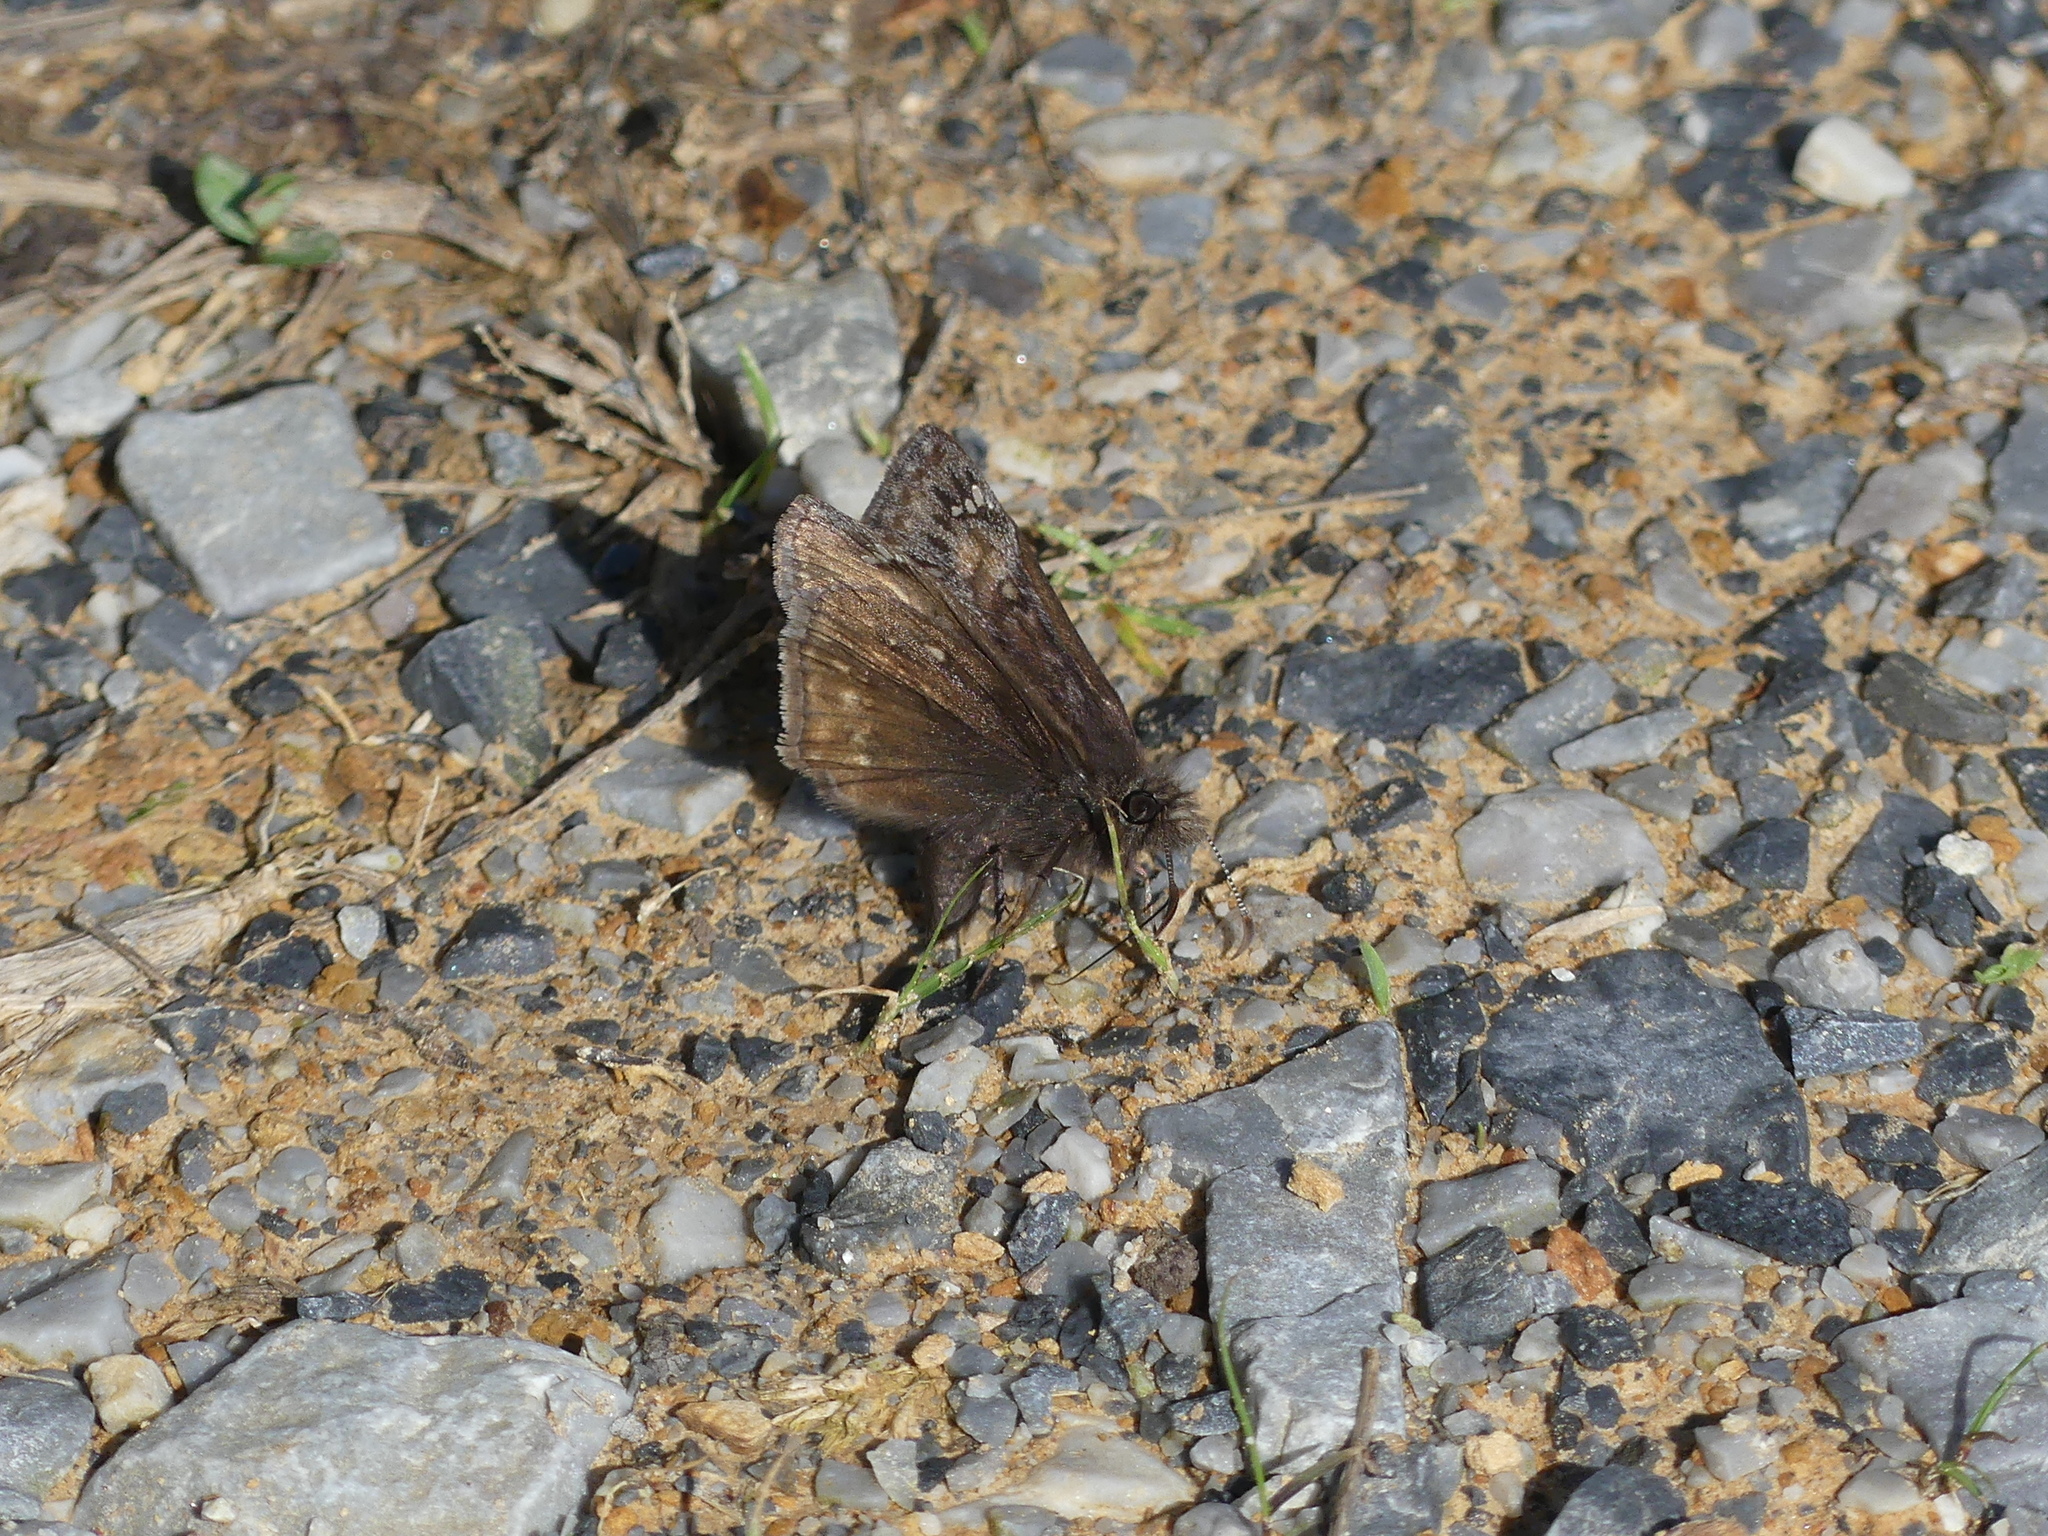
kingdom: Animalia
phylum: Arthropoda
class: Insecta
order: Lepidoptera
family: Hesperiidae
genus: Erynnis
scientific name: Erynnis juvenalis
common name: Juvenal's duskywing
